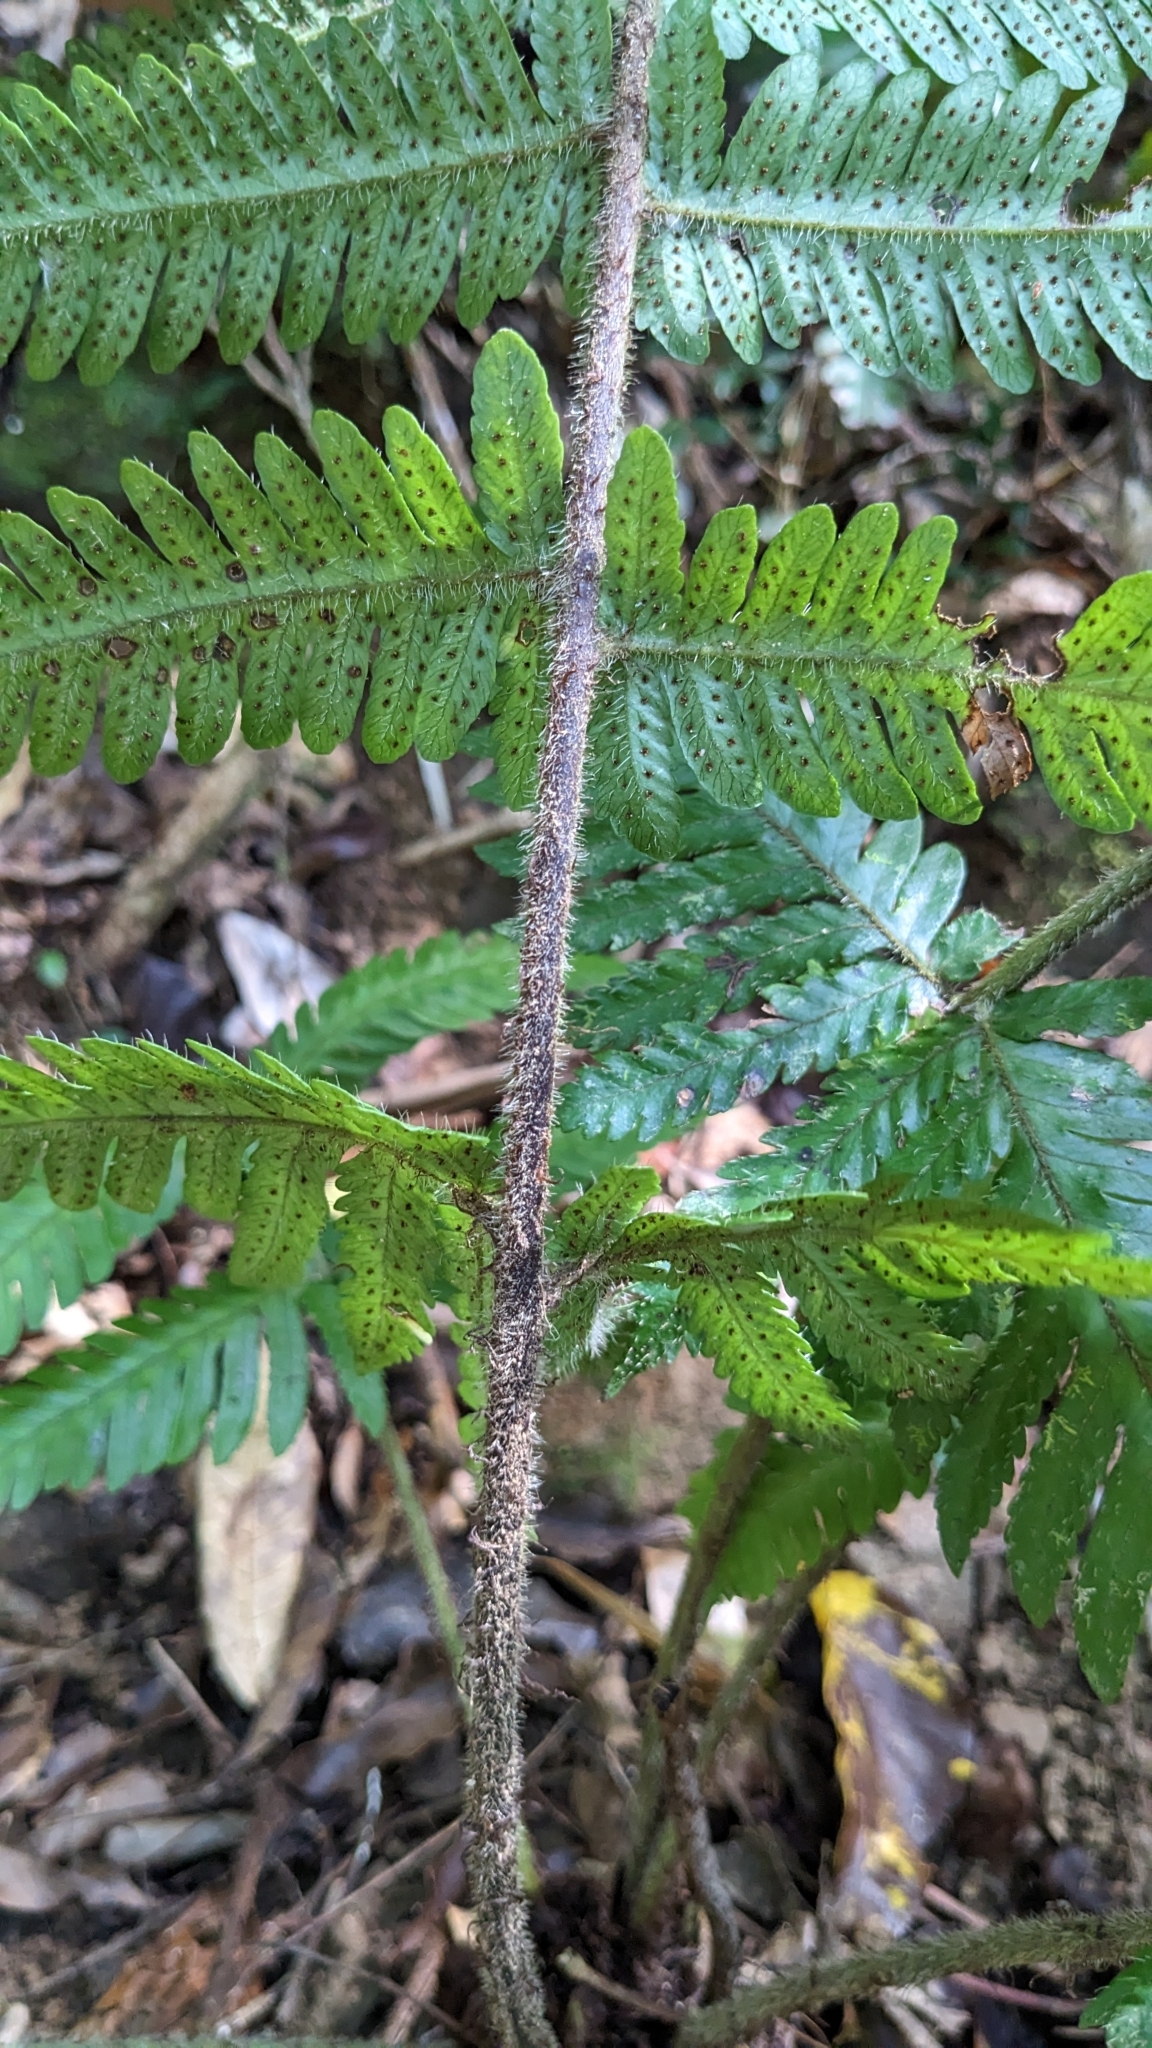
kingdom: Plantae
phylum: Tracheophyta
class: Polypodiopsida
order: Polypodiales
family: Tectariaceae
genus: Tectaria
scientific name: Tectaria kusukusensis
